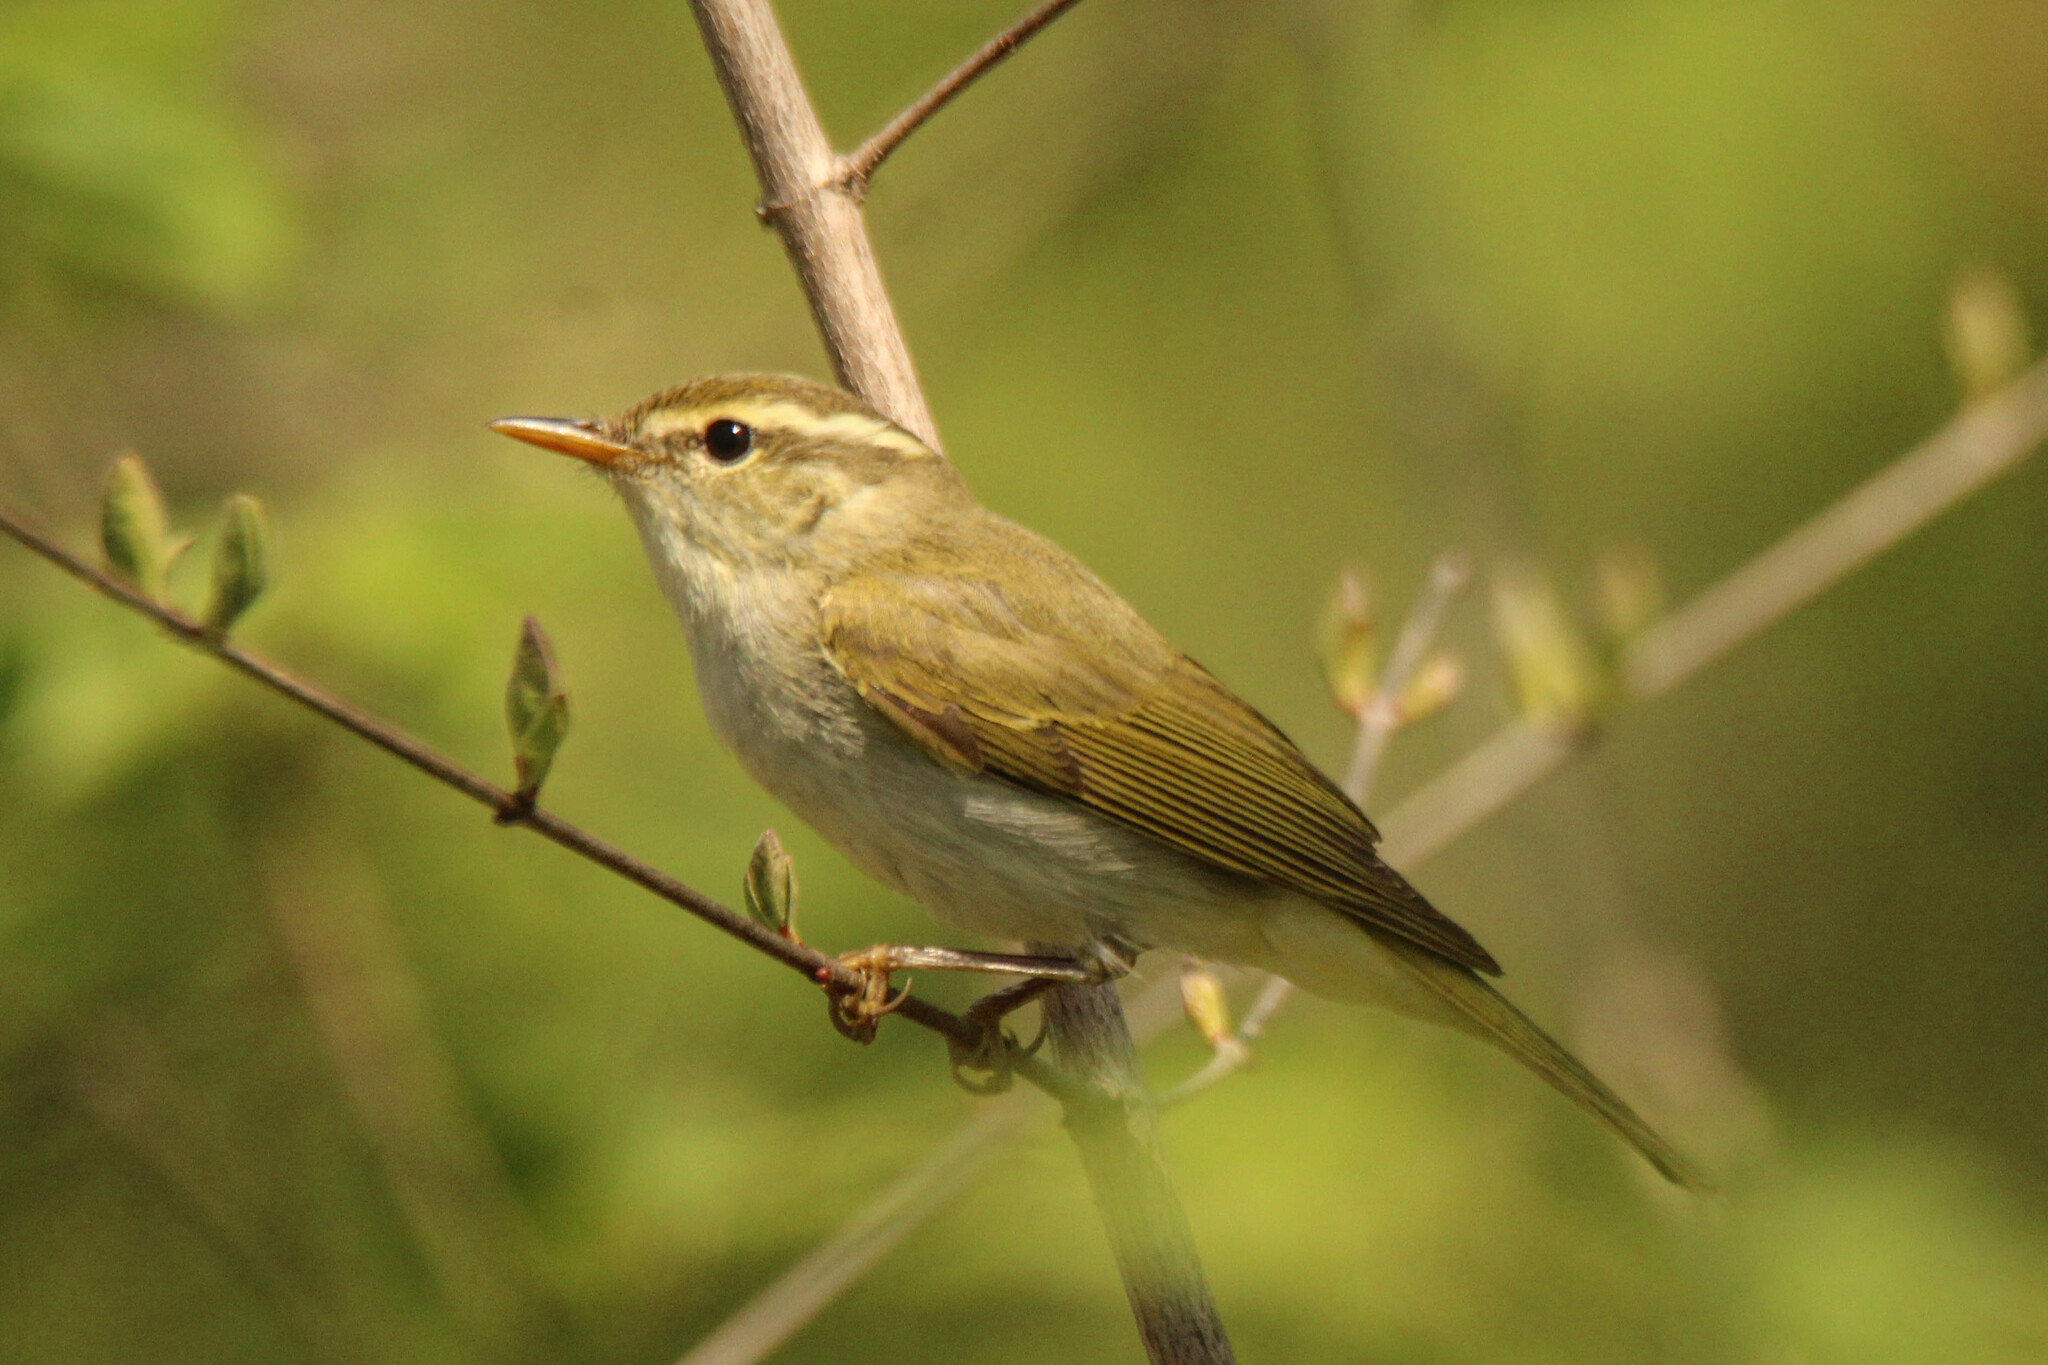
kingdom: Animalia
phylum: Chordata
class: Aves
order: Passeriformes
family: Phylloscopidae
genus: Phylloscopus
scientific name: Phylloscopus coronatus
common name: Eastern crowned warbler
